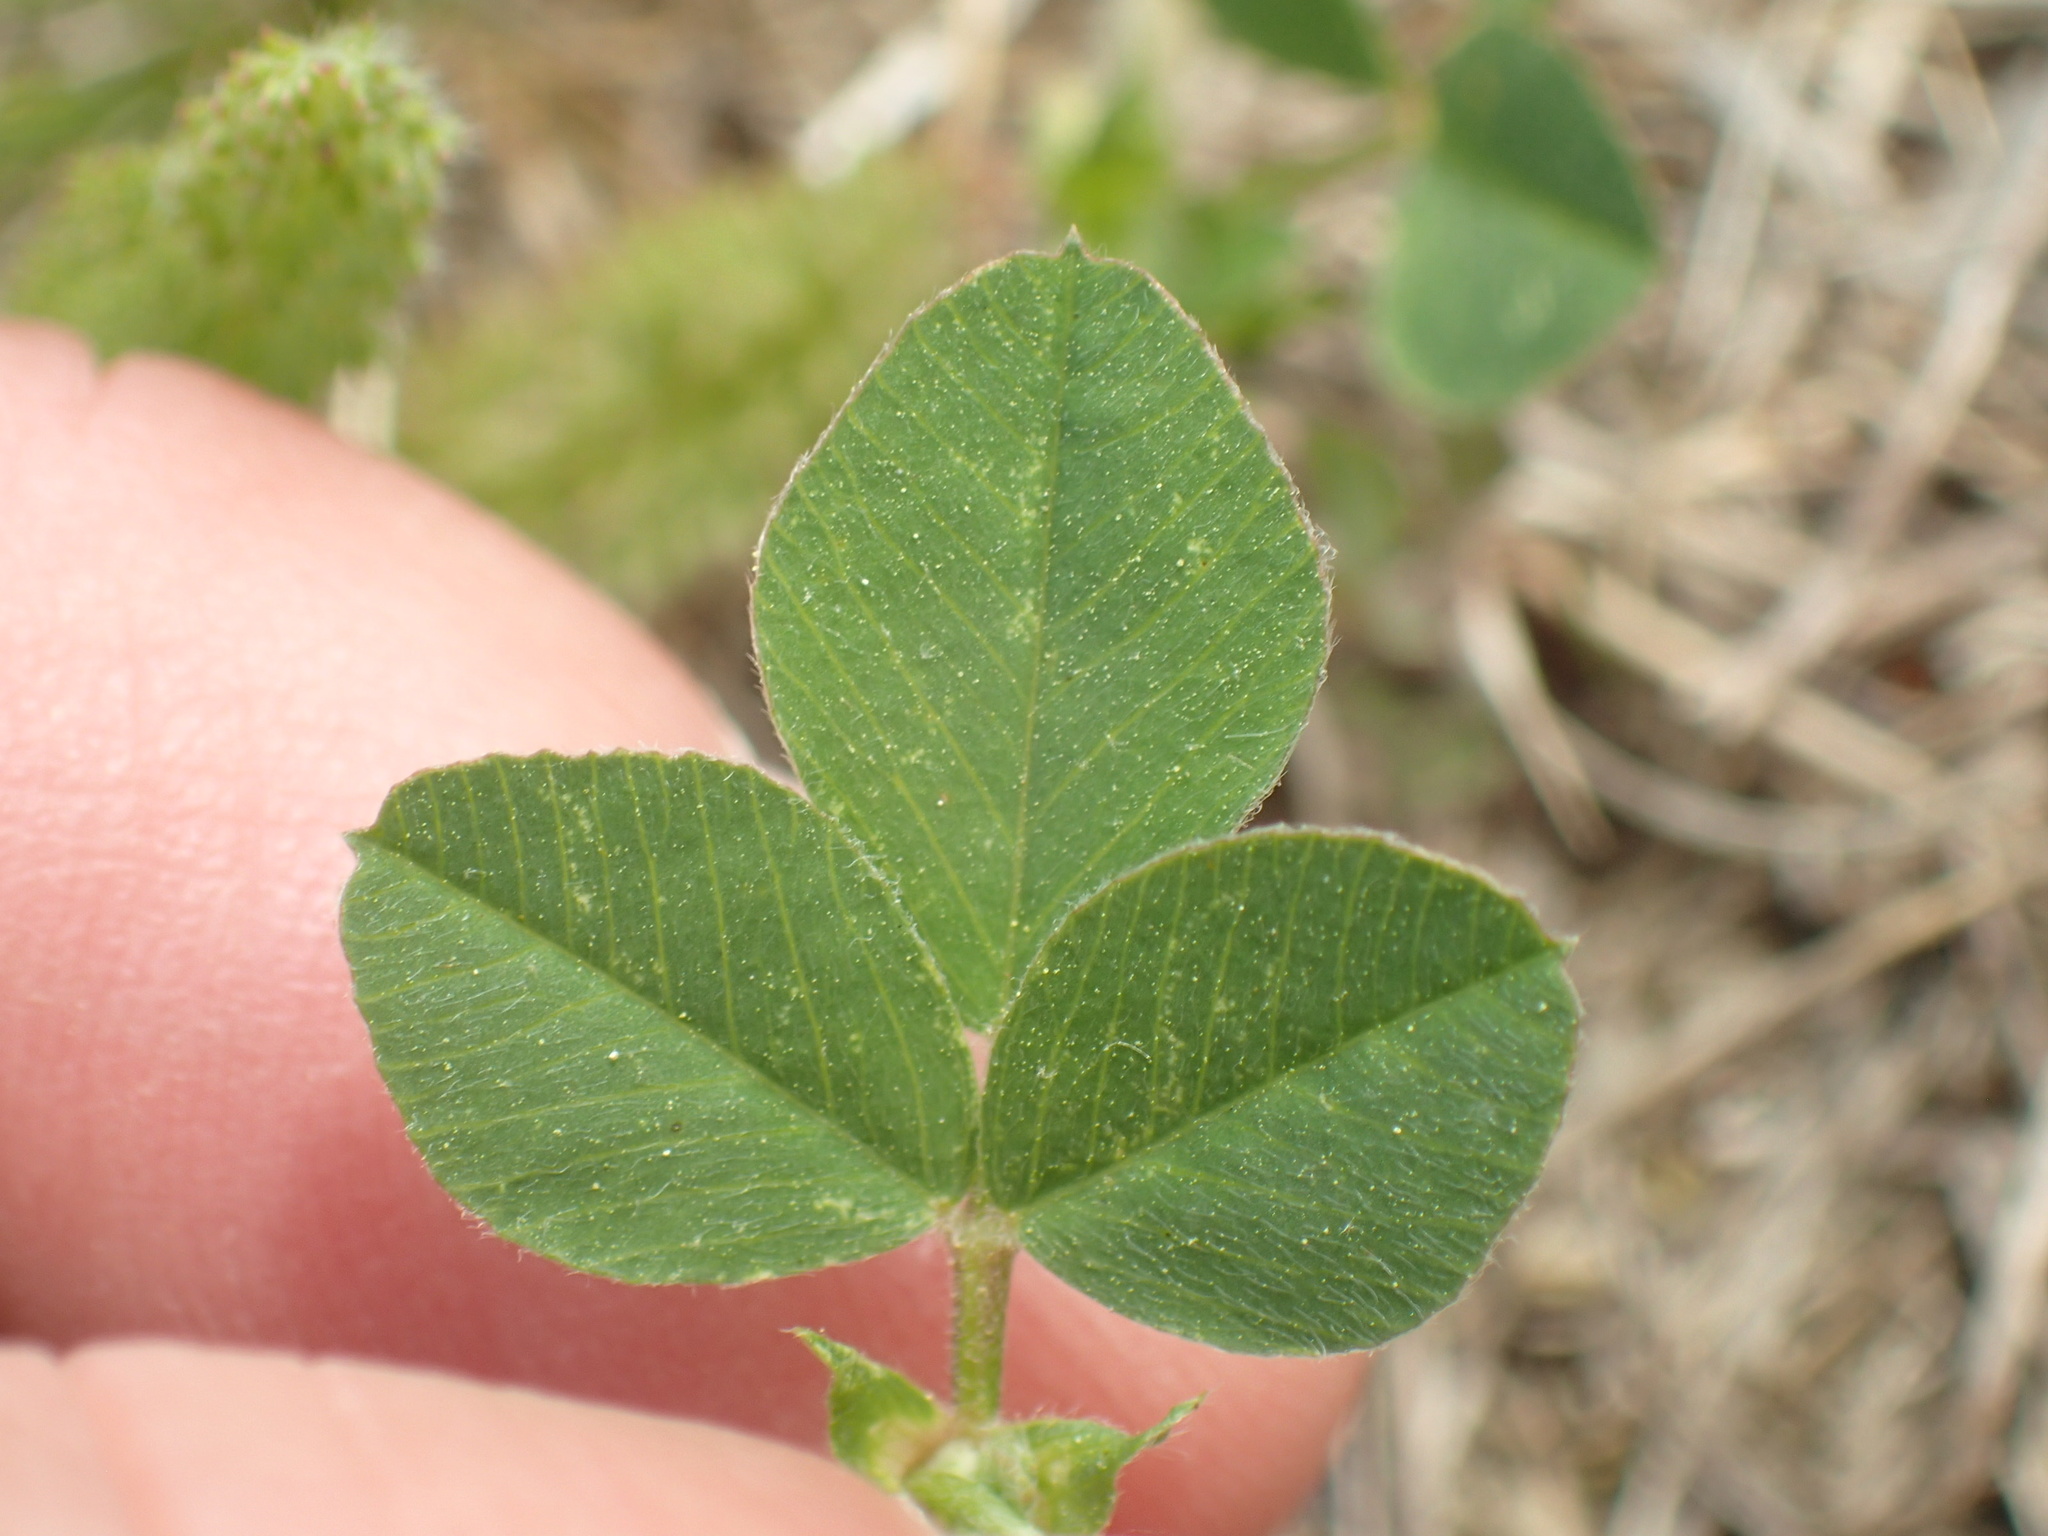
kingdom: Plantae
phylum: Tracheophyta
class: Magnoliopsida
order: Fabales
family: Fabaceae
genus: Medicago
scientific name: Medicago lupulina
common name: Black medick
